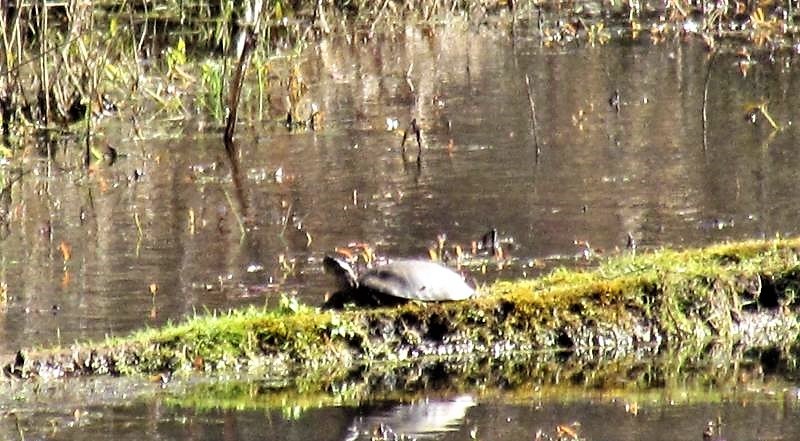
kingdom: Animalia
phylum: Chordata
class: Testudines
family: Emydidae
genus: Actinemys
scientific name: Actinemys marmorata
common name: Western pond turtle
